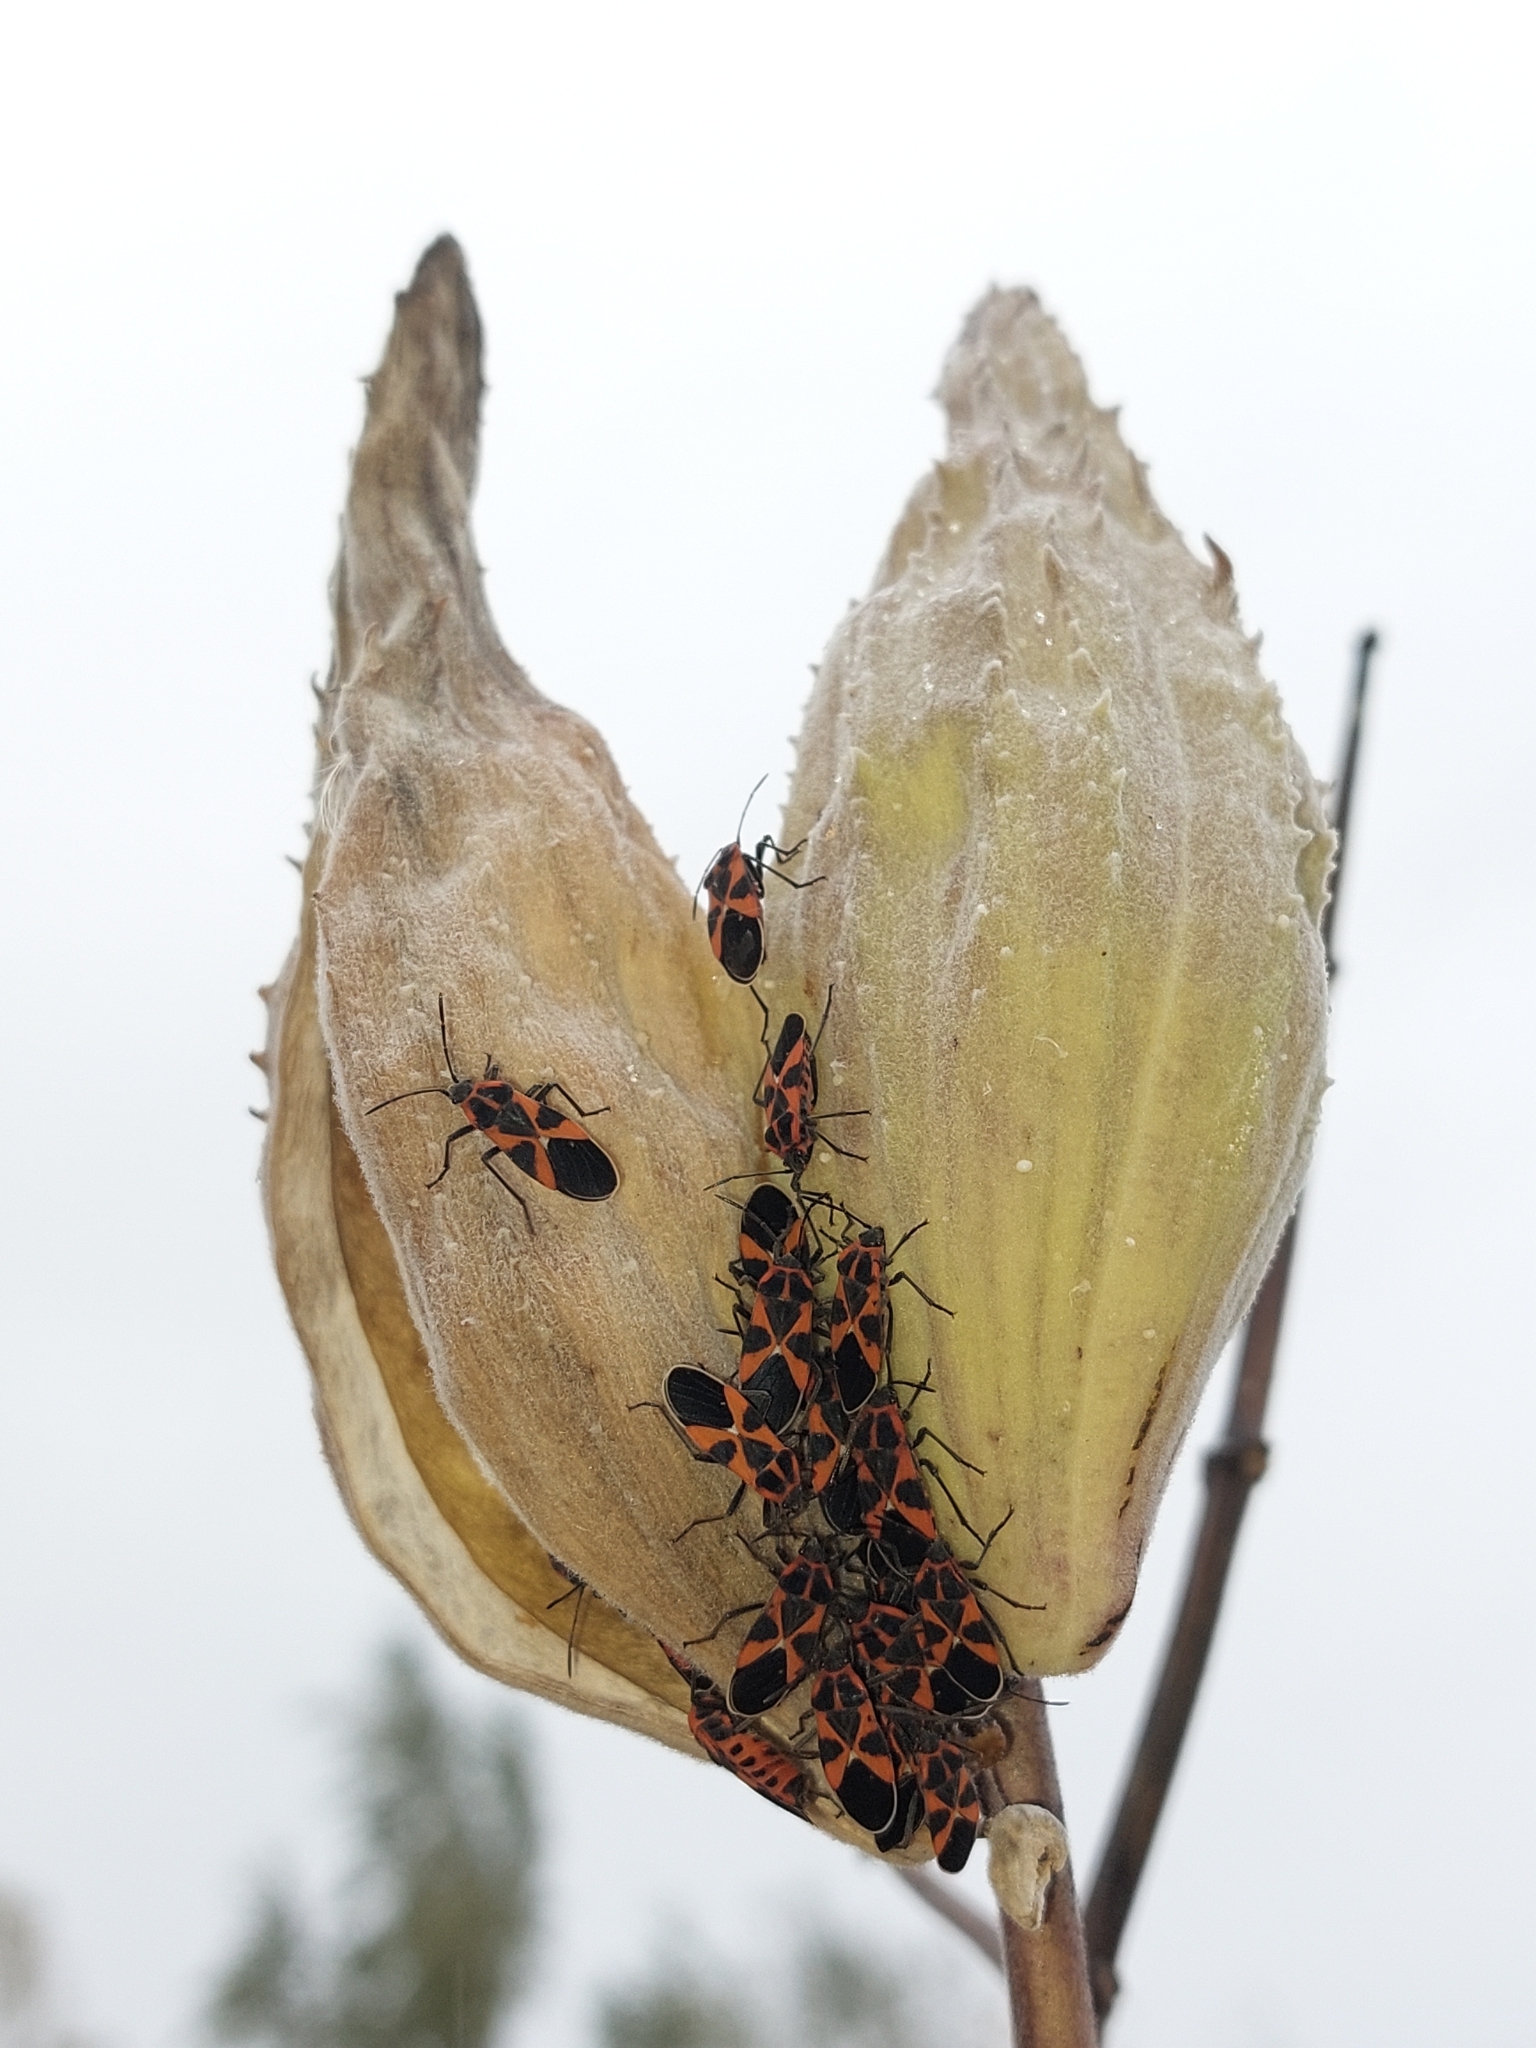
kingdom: Animalia
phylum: Arthropoda
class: Insecta
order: Hemiptera
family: Lygaeidae
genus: Tropidothorax
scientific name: Tropidothorax leucopterus
